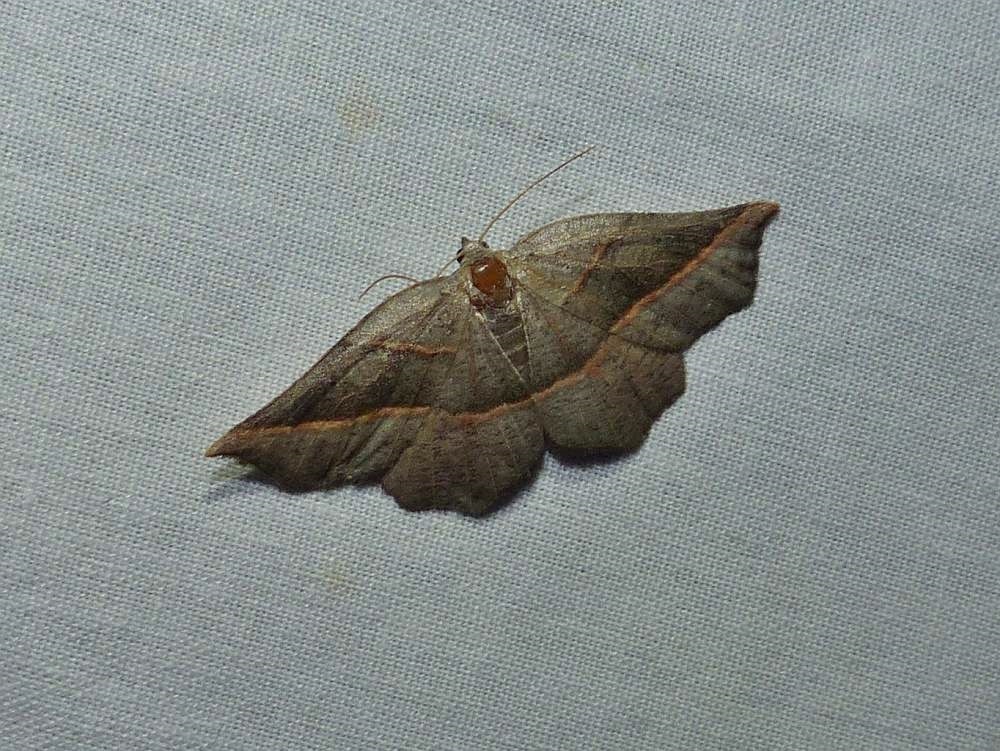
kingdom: Animalia
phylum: Arthropoda
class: Insecta
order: Lepidoptera
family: Geometridae
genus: Metanema
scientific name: Metanema determinata
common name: Dark metanema
